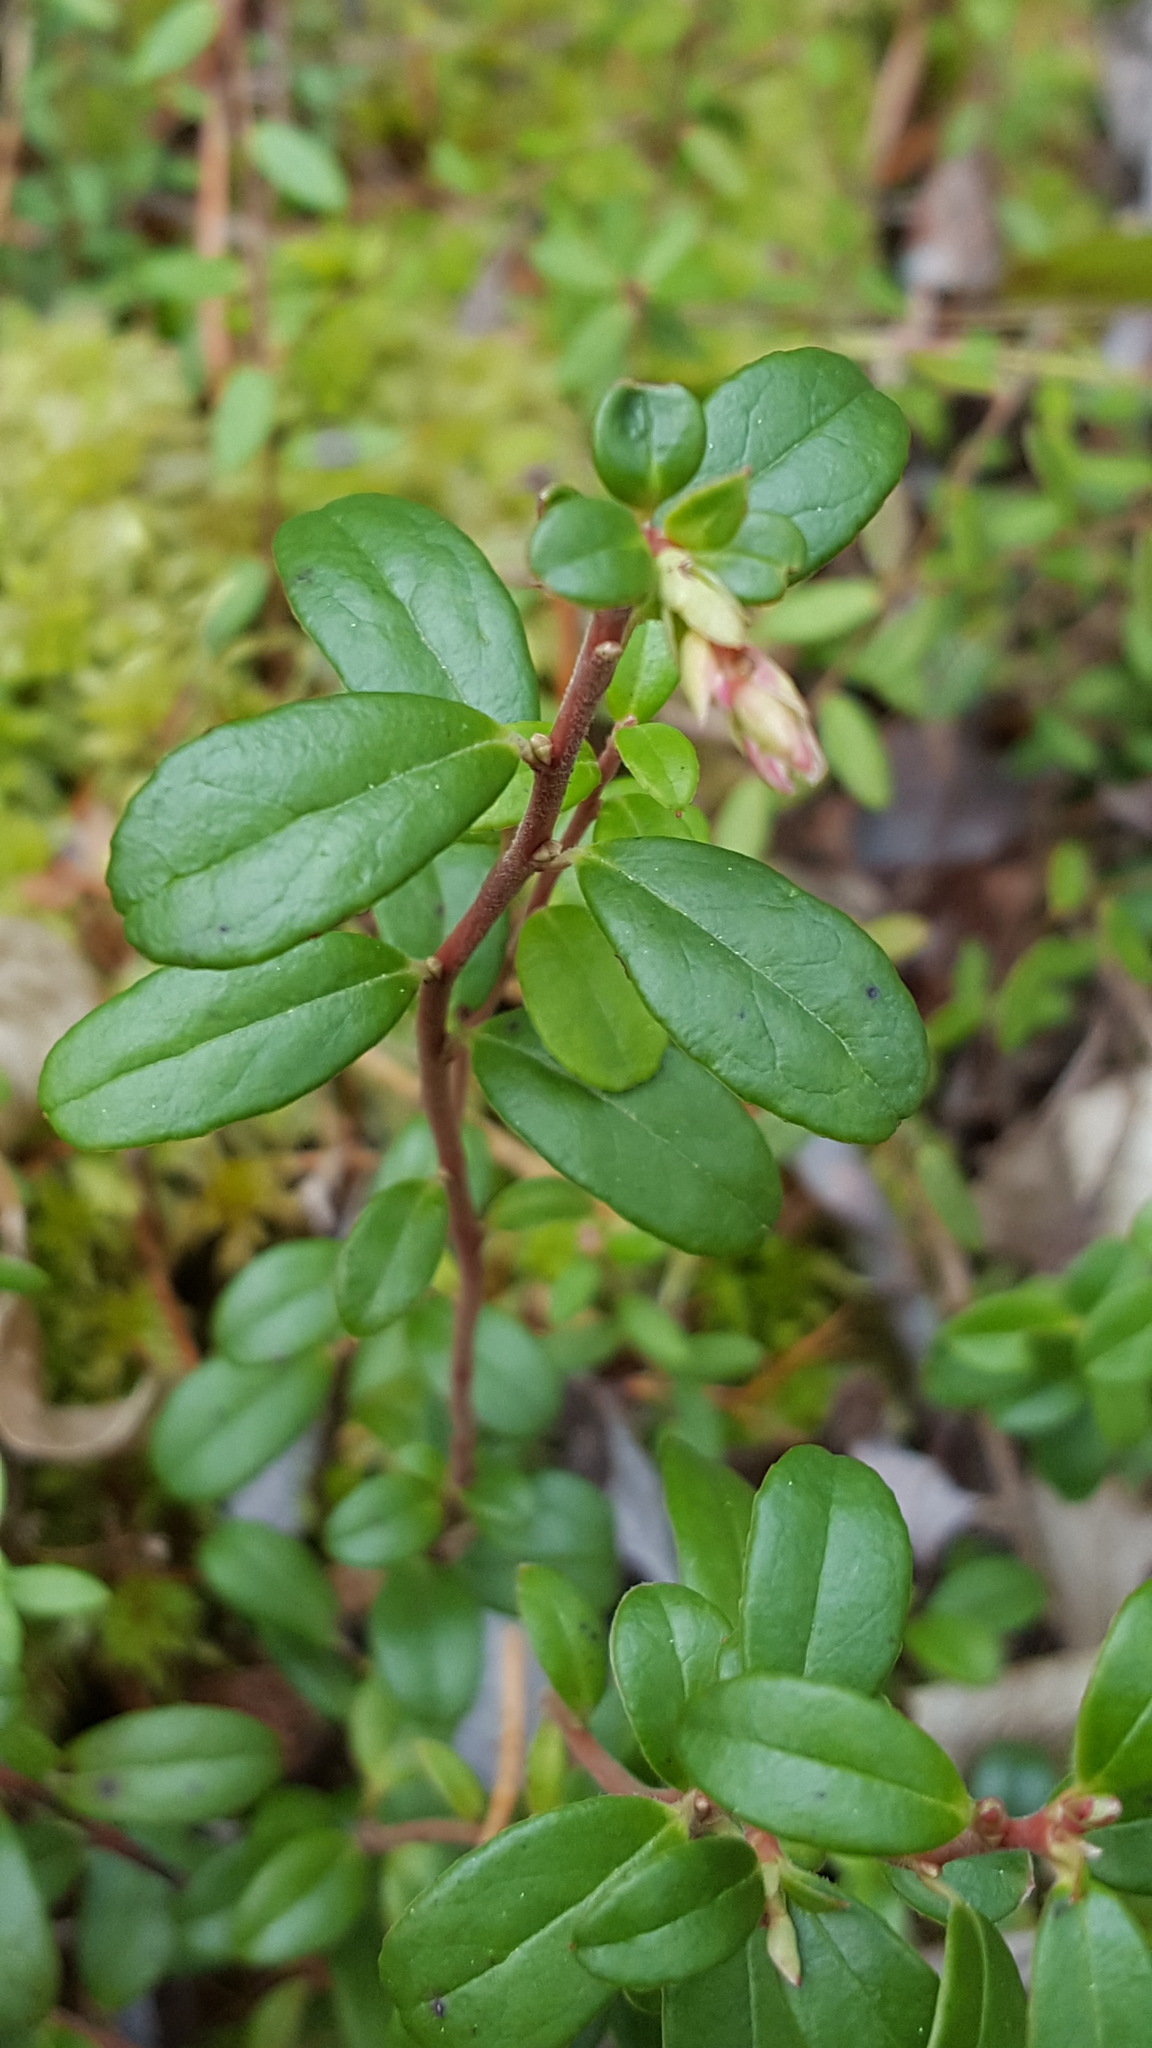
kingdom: Plantae
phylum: Tracheophyta
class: Magnoliopsida
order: Ericales
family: Ericaceae
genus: Vaccinium
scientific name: Vaccinium vitis-idaea
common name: Cowberry
